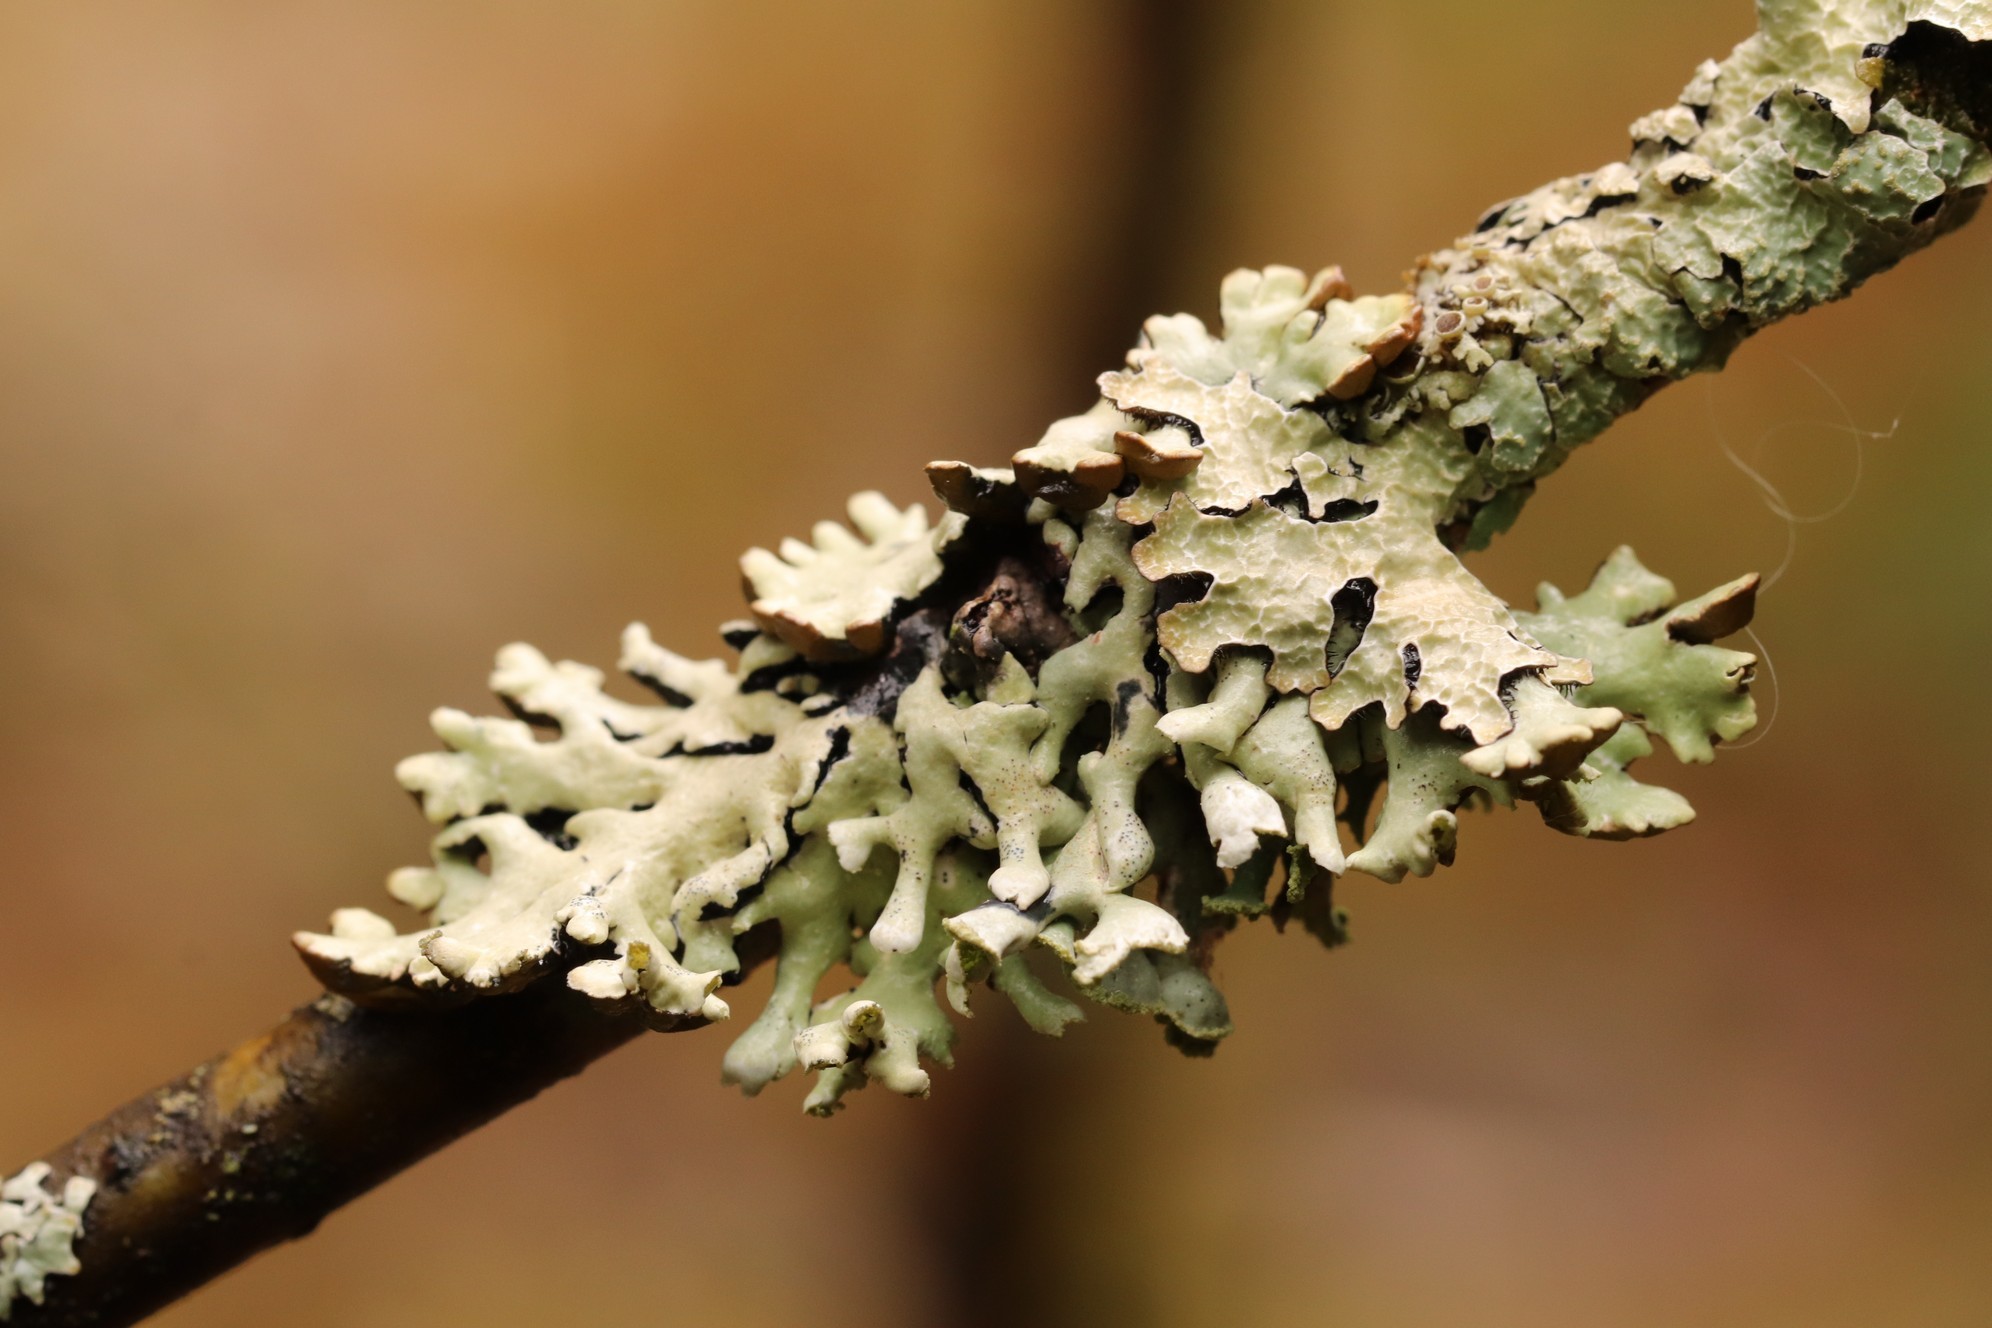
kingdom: Fungi
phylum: Ascomycota
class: Lecanoromycetes
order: Lecanorales
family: Parmeliaceae
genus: Hypogymnia
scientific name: Hypogymnia physodes
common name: Dark crottle
